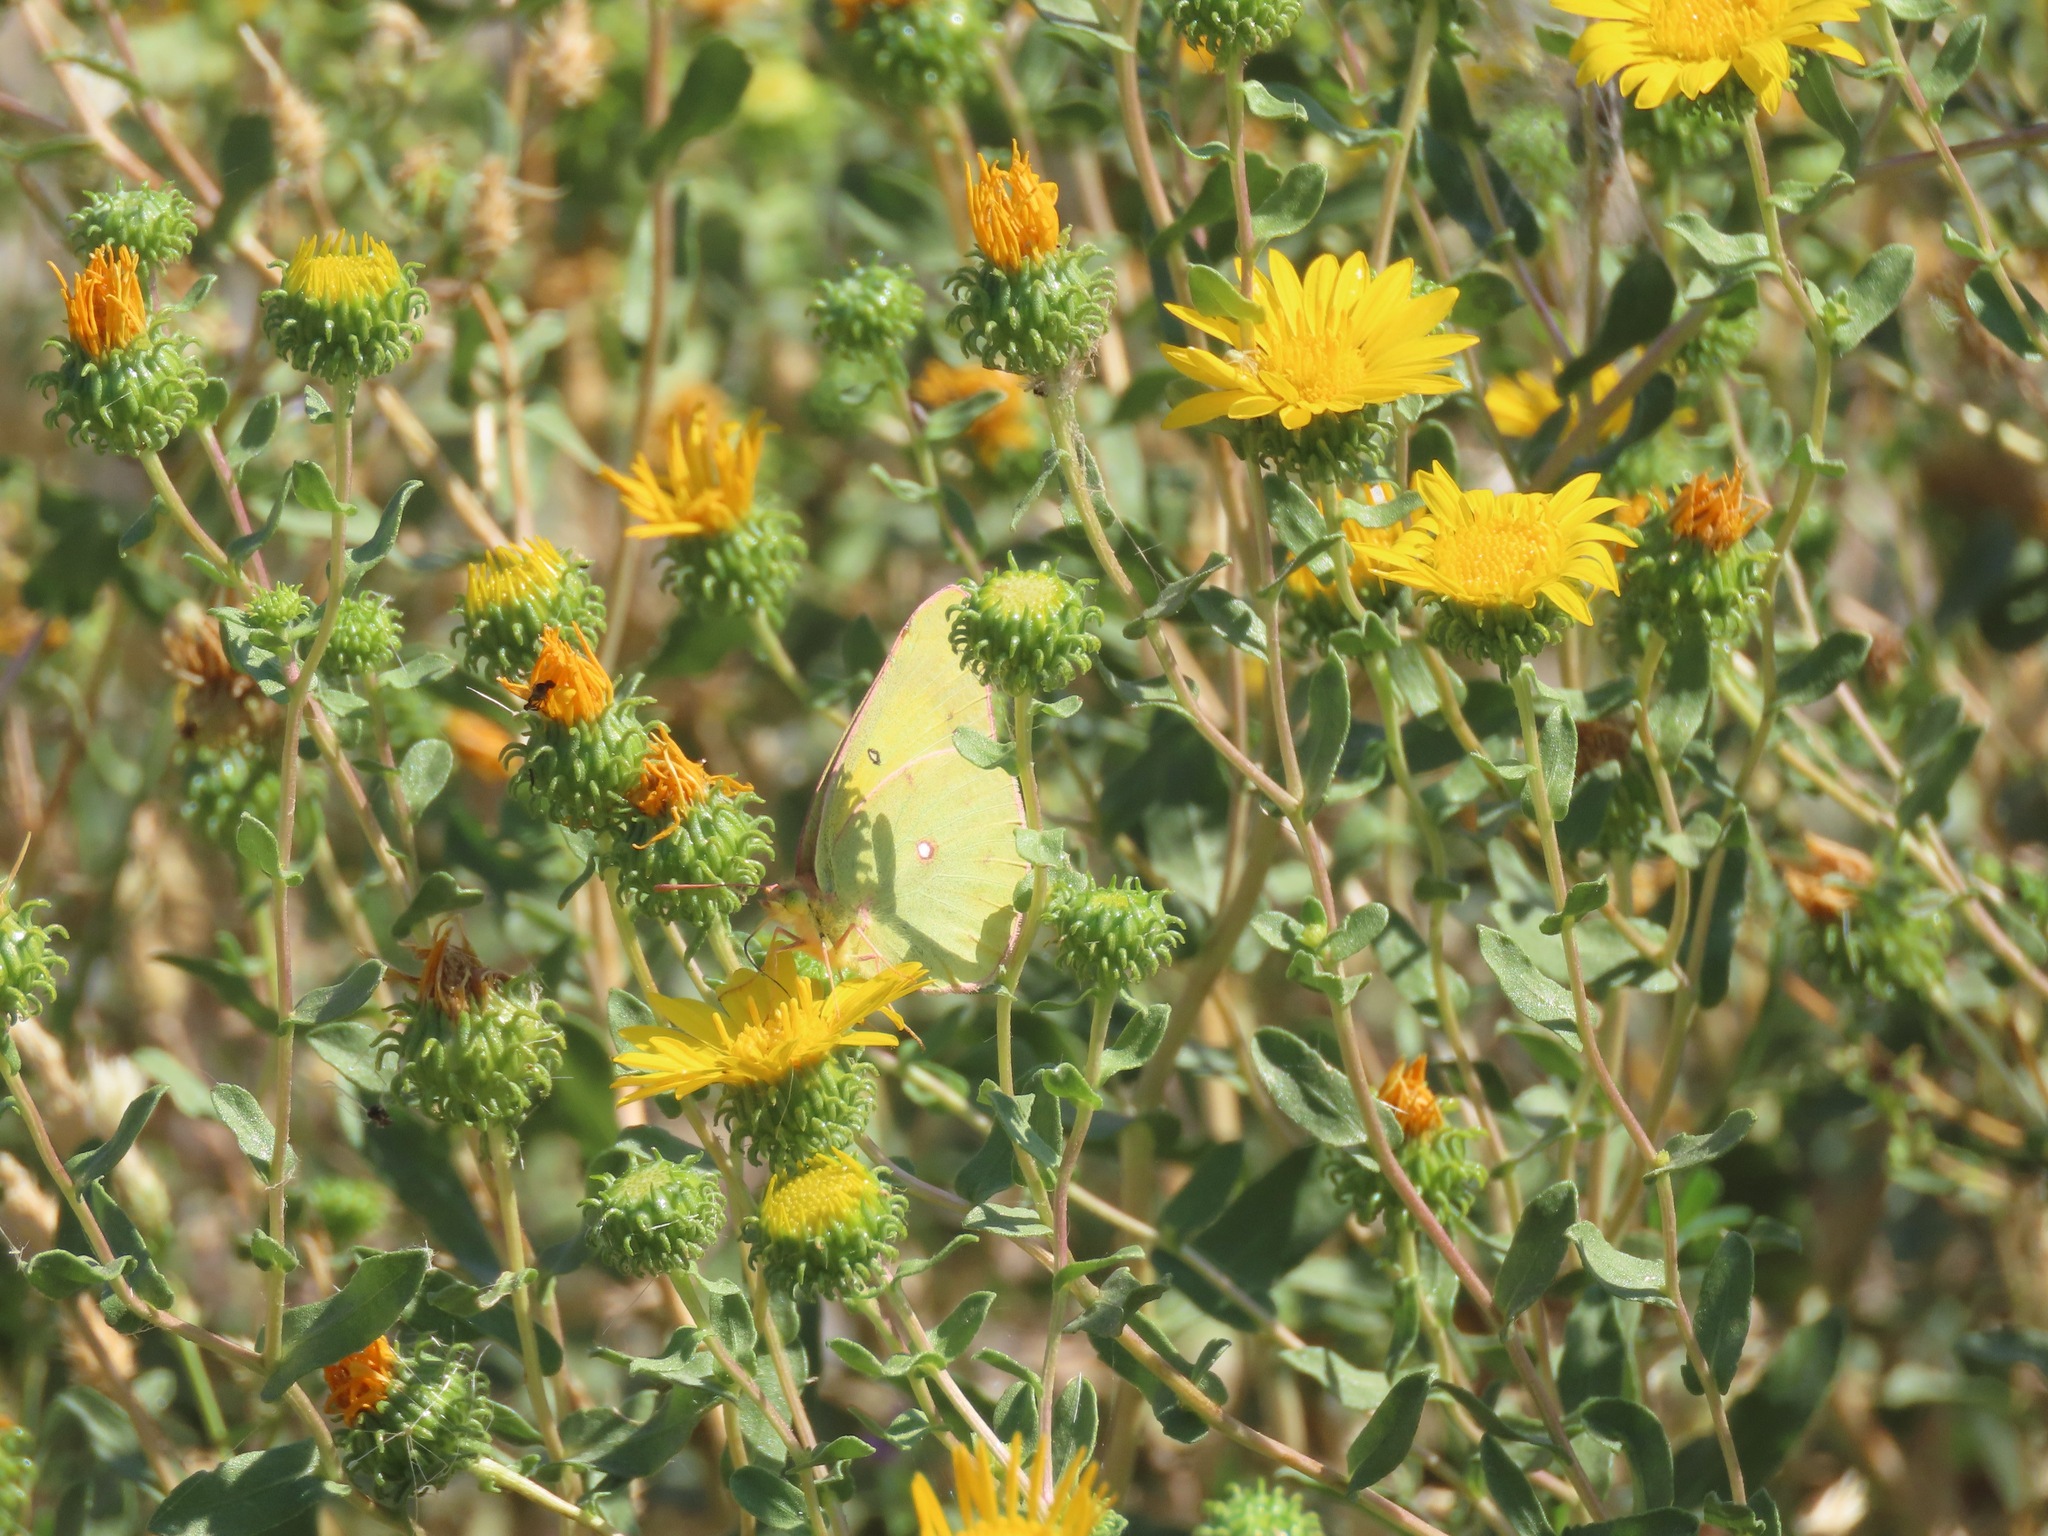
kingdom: Animalia
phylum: Arthropoda
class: Insecta
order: Lepidoptera
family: Pieridae
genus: Colias
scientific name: Colias eurytheme
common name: Alfalfa butterfly
